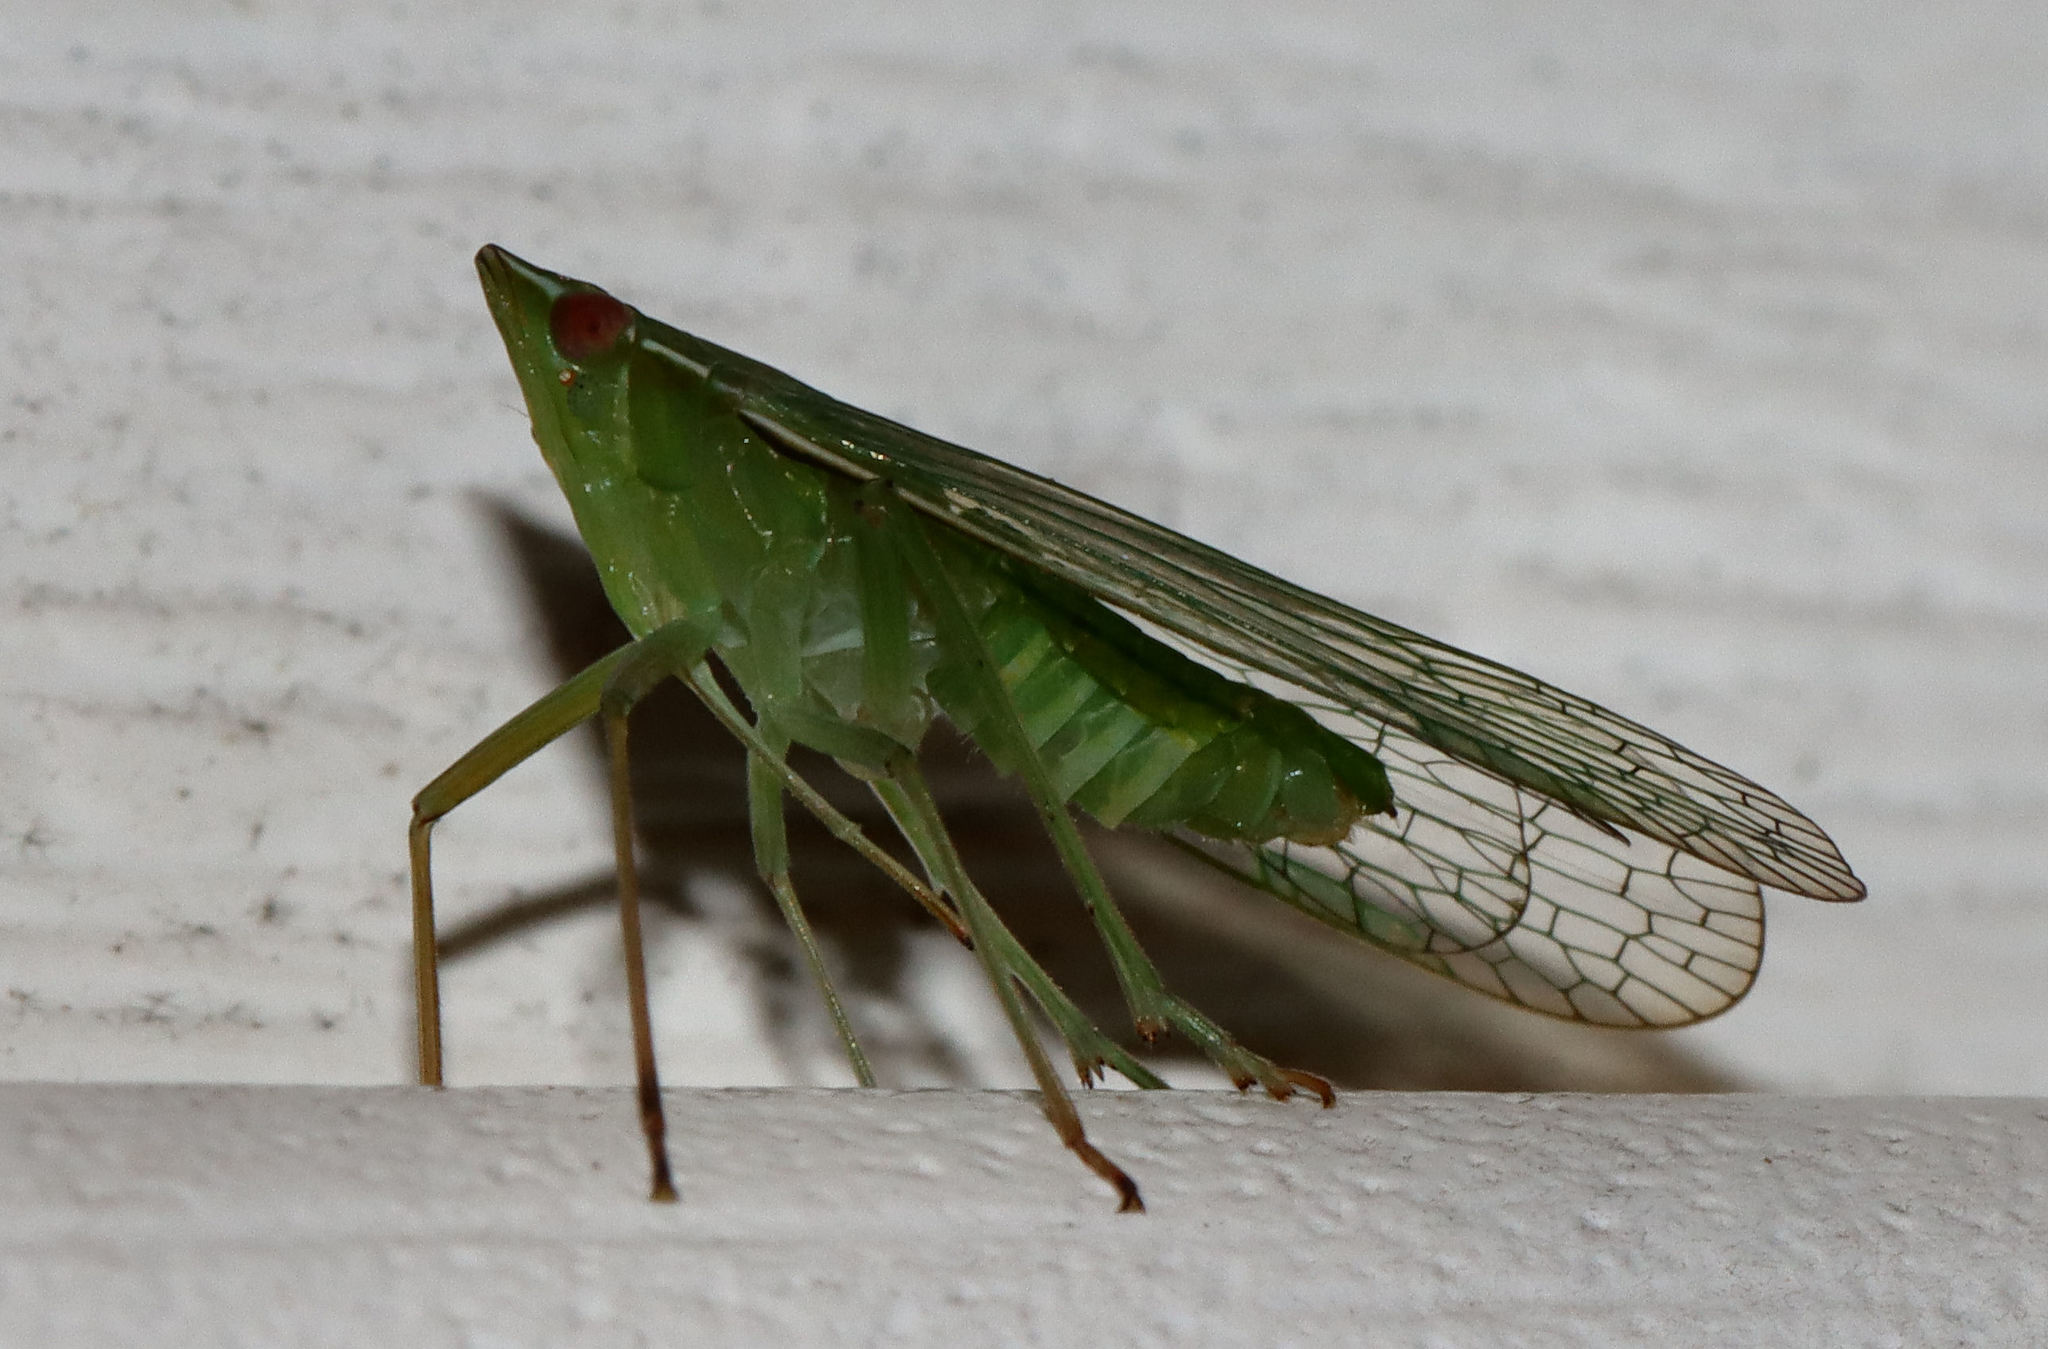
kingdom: Animalia
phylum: Arthropoda
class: Insecta
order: Hemiptera
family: Dictyopharidae
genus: Nersia
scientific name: Nersia florida
